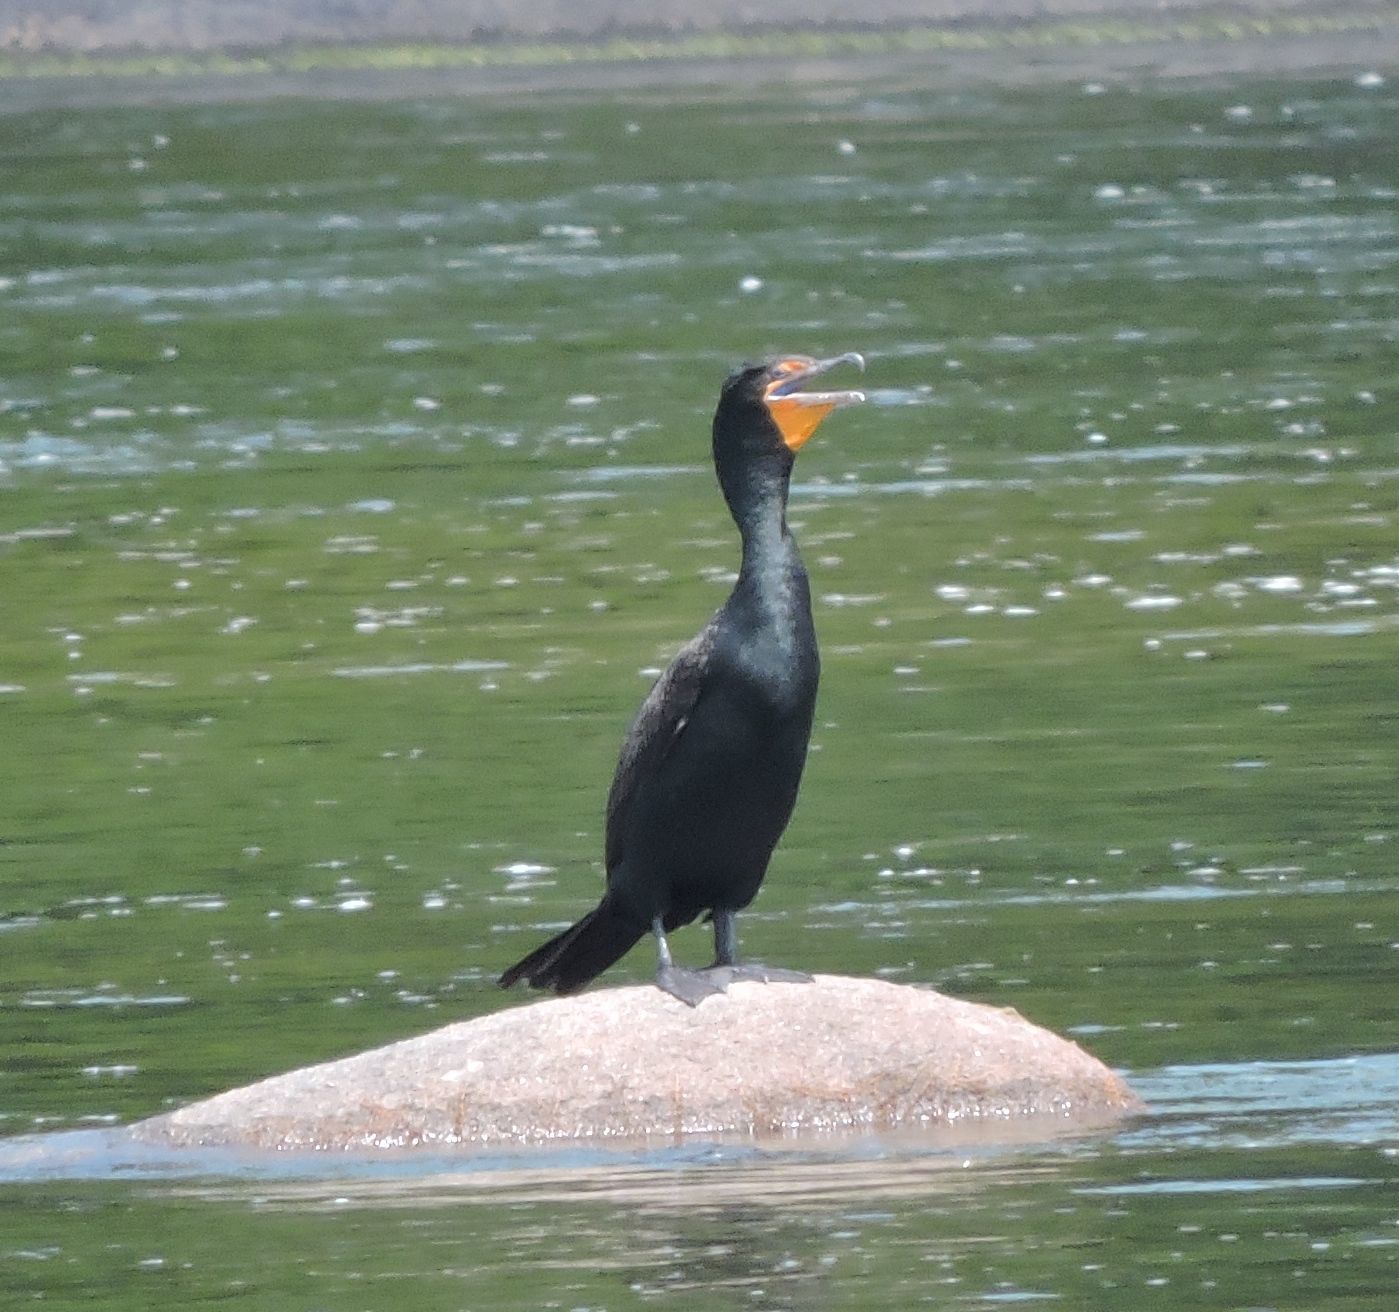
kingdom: Animalia
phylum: Chordata
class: Aves
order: Suliformes
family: Phalacrocoracidae
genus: Phalacrocorax
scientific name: Phalacrocorax auritus
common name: Double-crested cormorant
